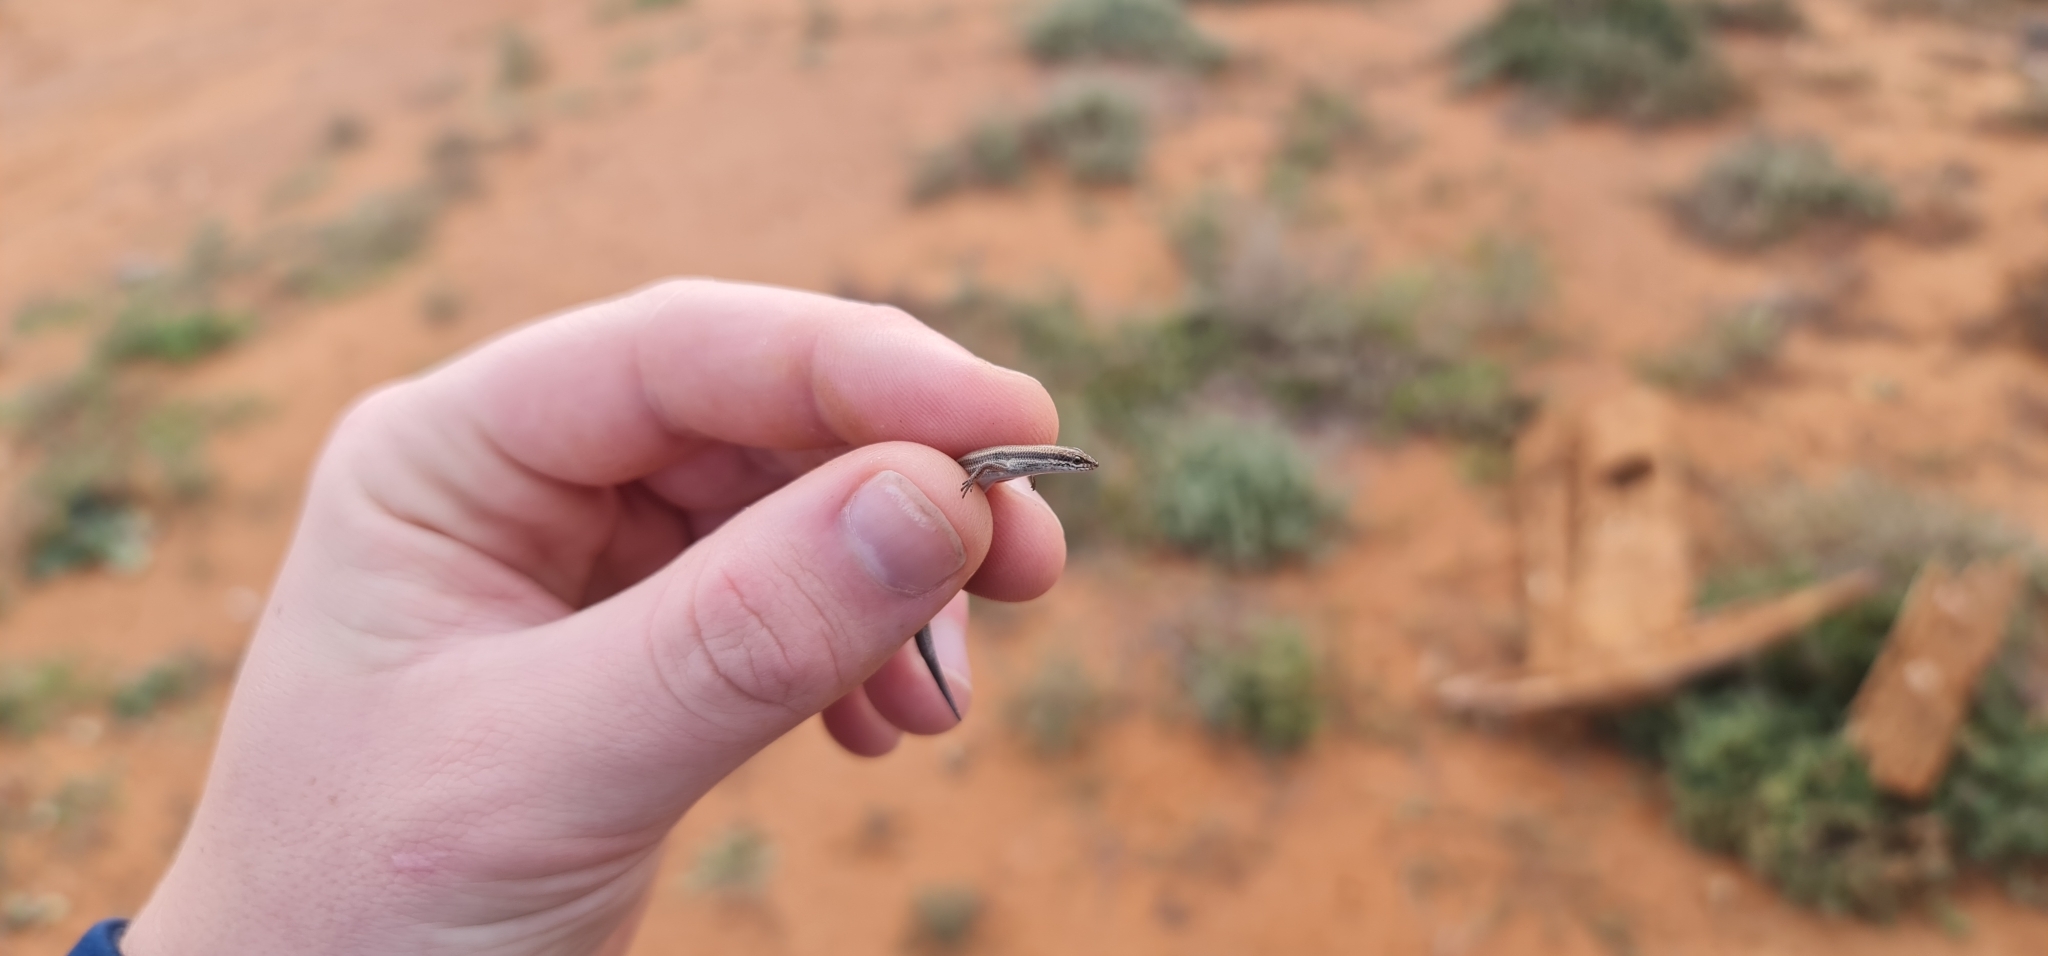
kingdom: Animalia
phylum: Chordata
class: Squamata
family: Scincidae
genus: Menetia
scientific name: Menetia greyii
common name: Common dwarf skink
